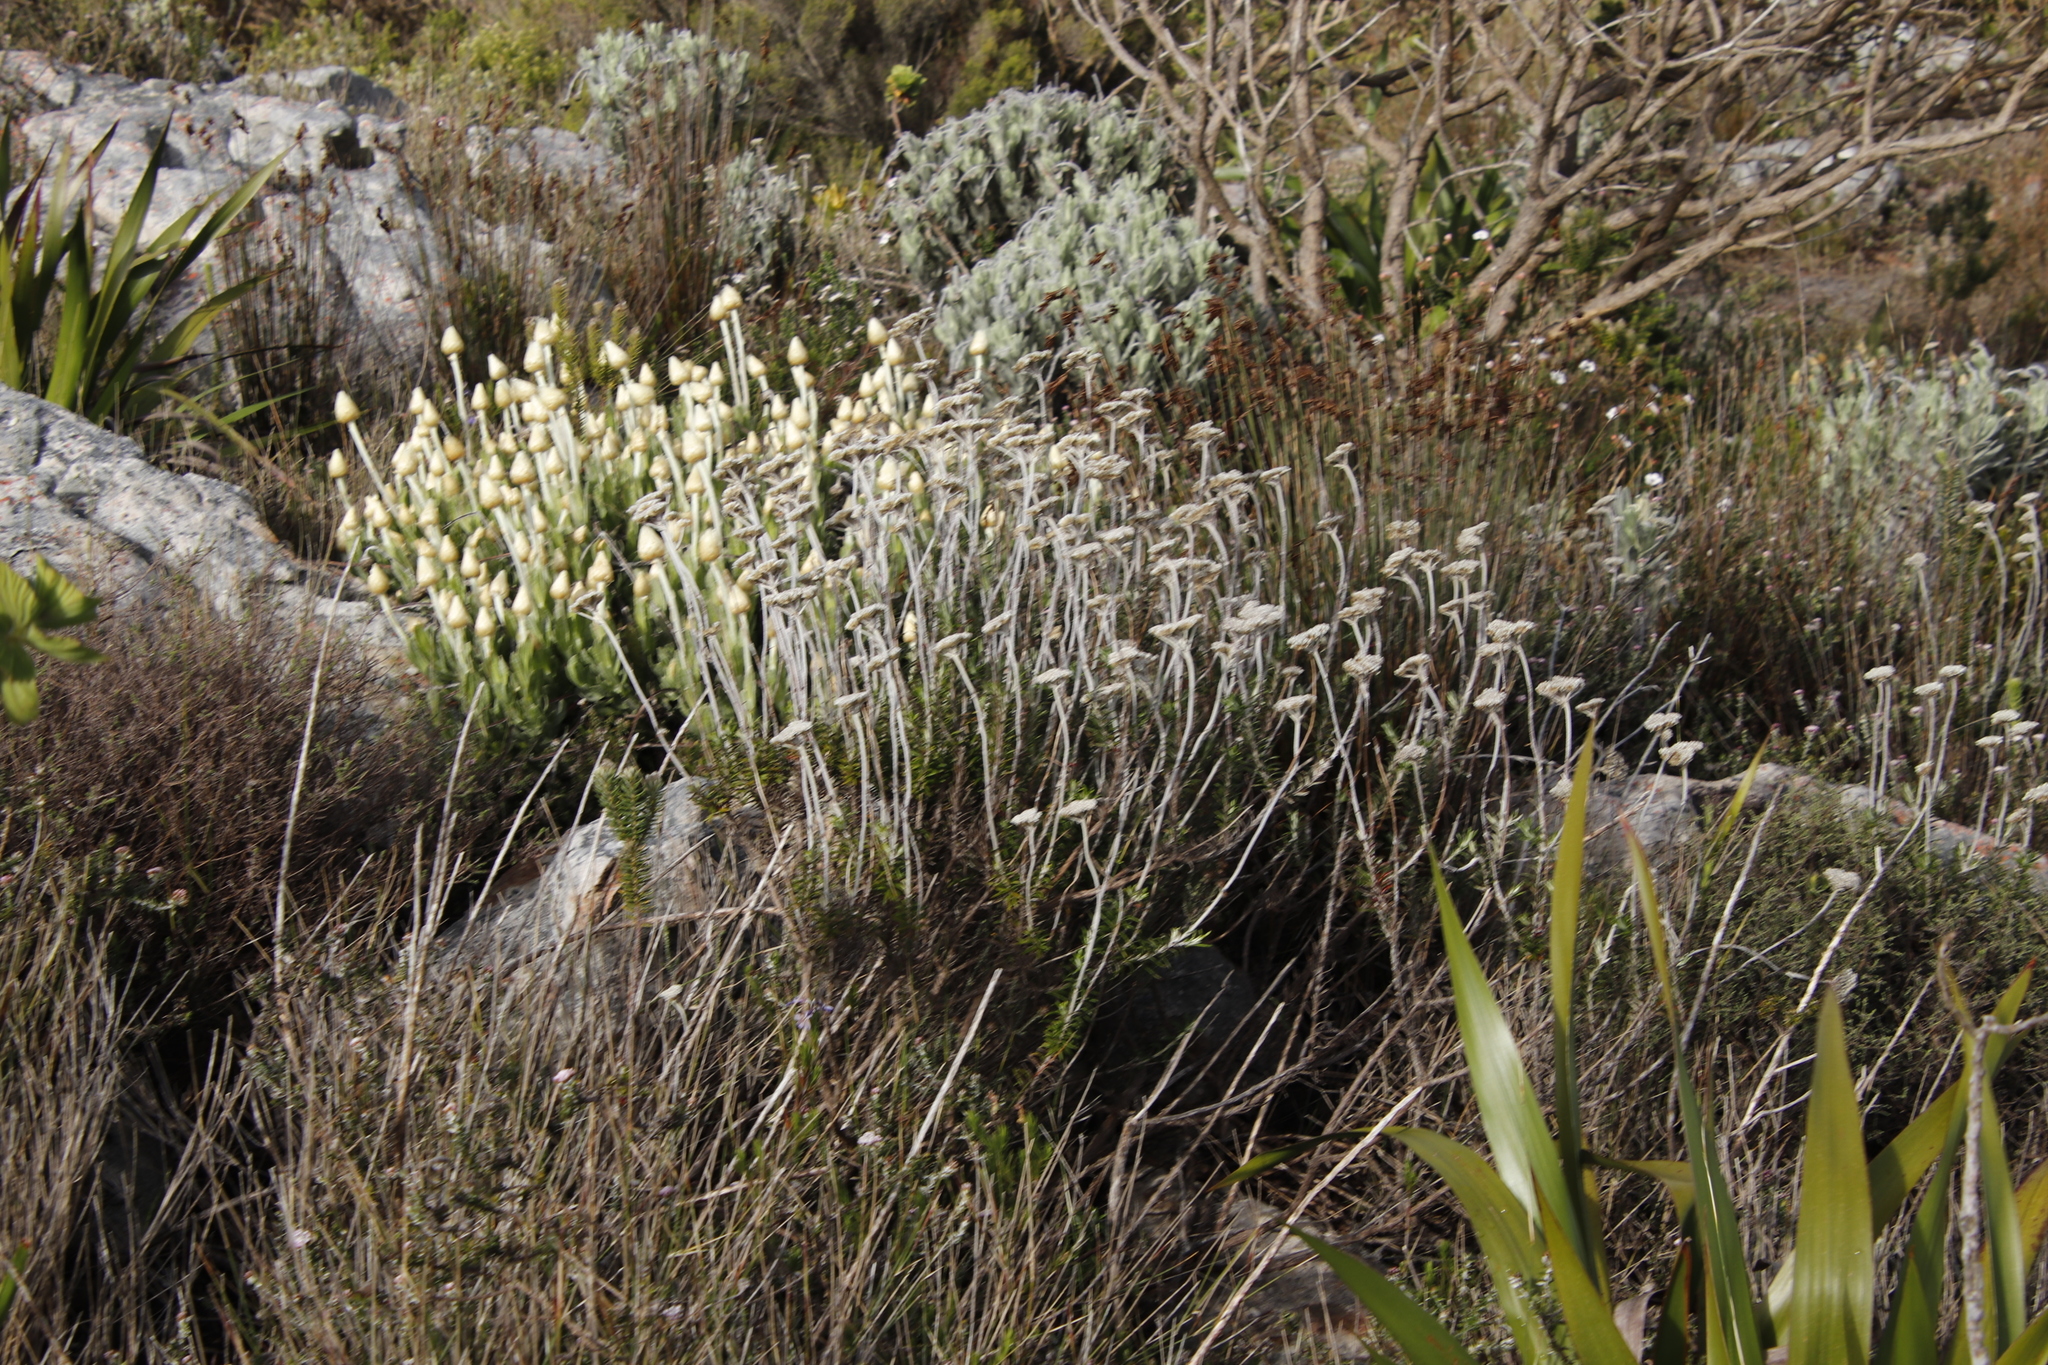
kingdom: Plantae
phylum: Tracheophyta
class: Magnoliopsida
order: Asterales
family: Asteraceae
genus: Anaxeton
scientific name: Anaxeton arborescens
